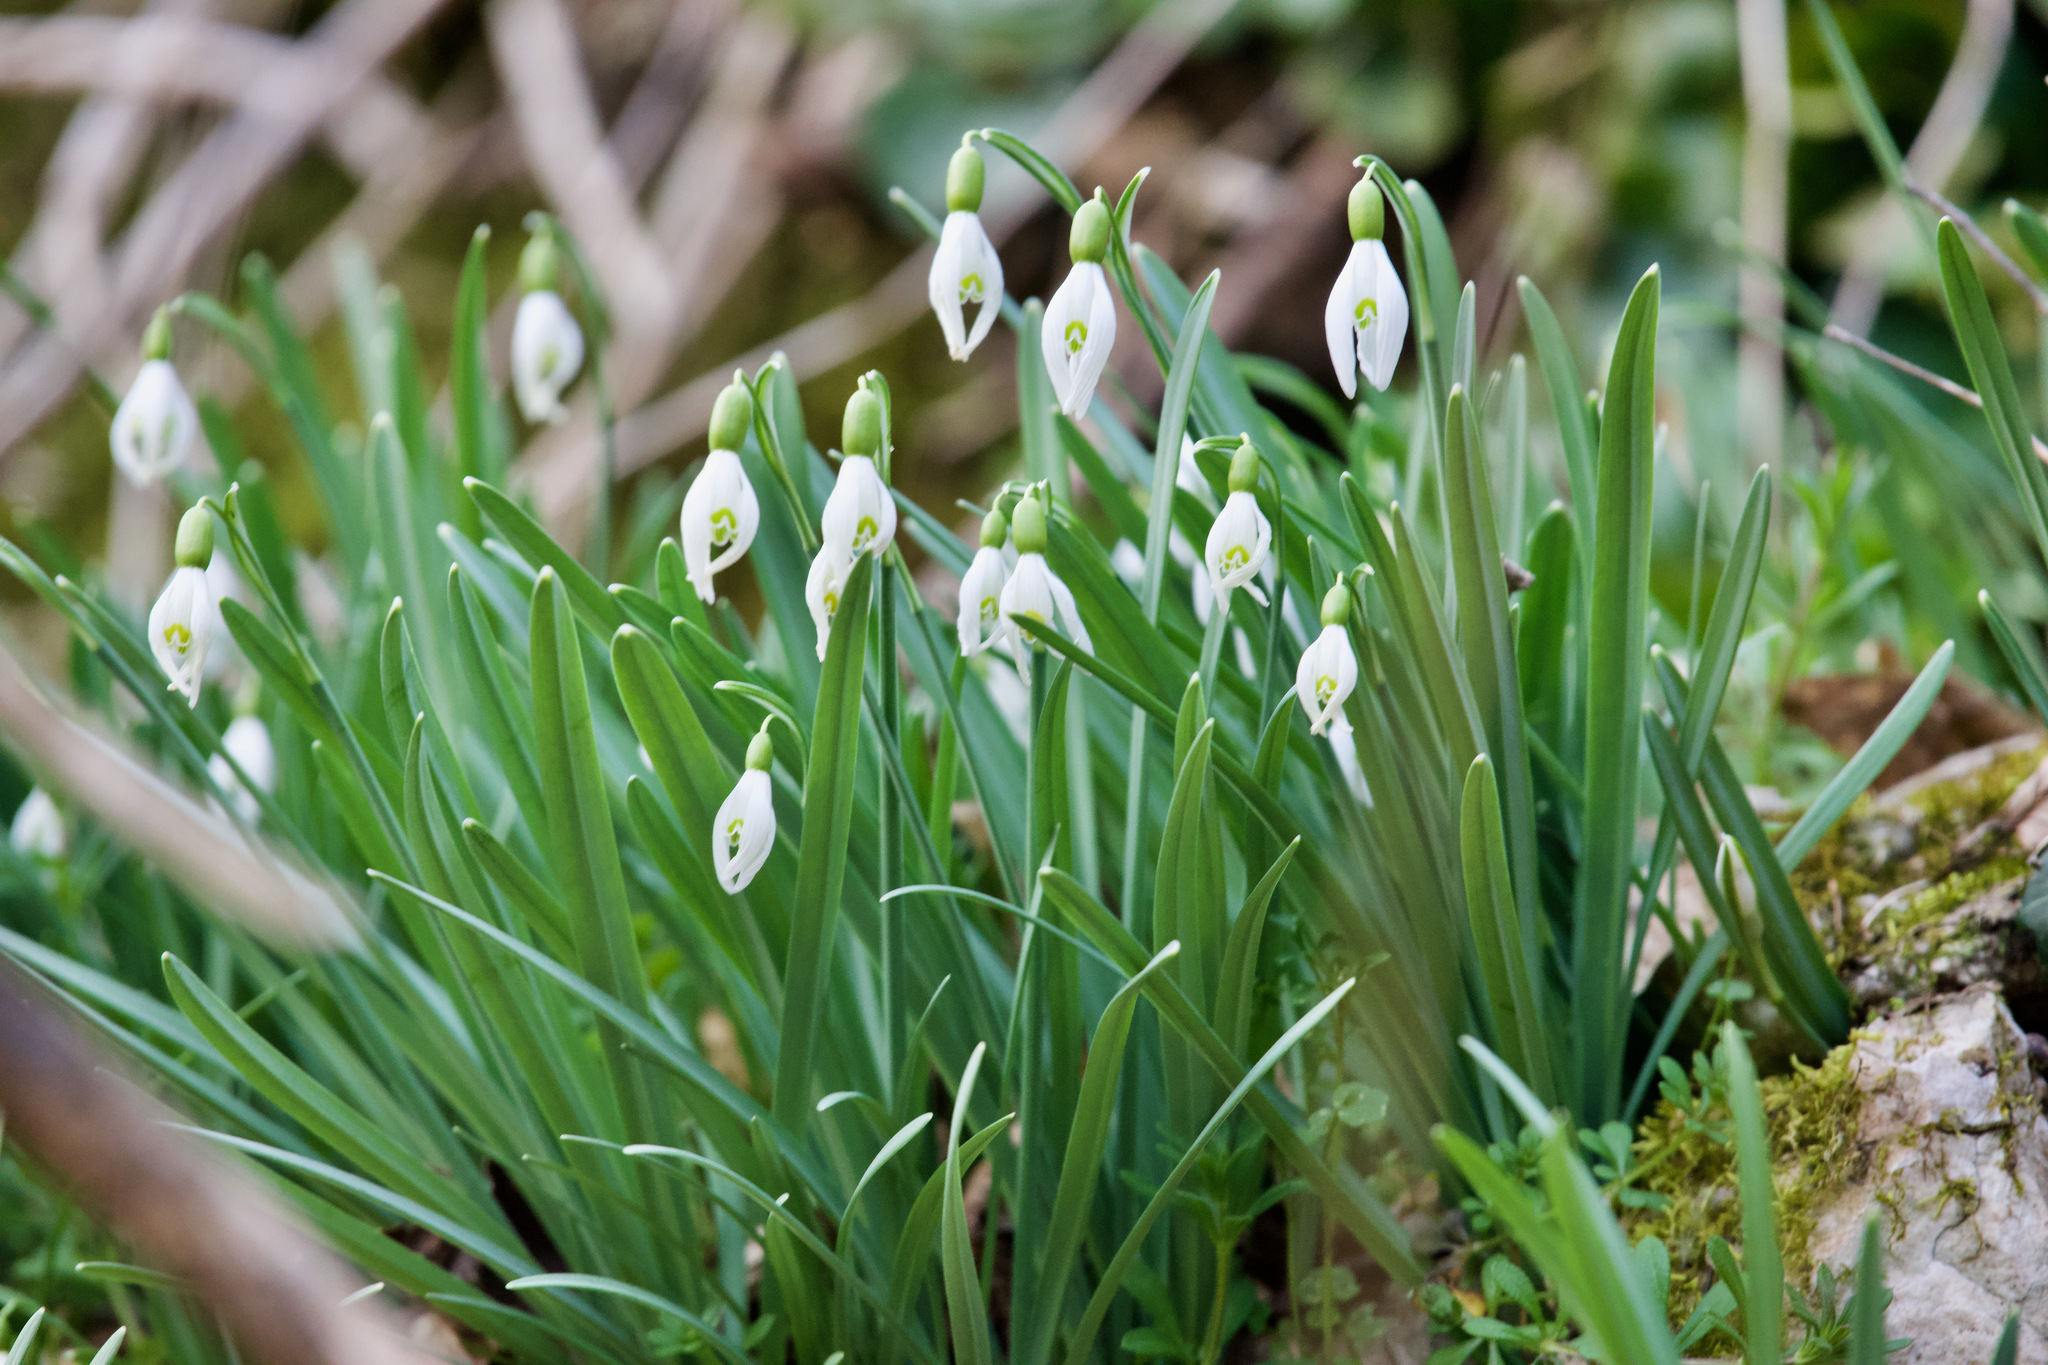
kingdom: Plantae
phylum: Tracheophyta
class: Liliopsida
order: Asparagales
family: Amaryllidaceae
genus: Galanthus
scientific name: Galanthus nivalis
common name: Snowdrop
